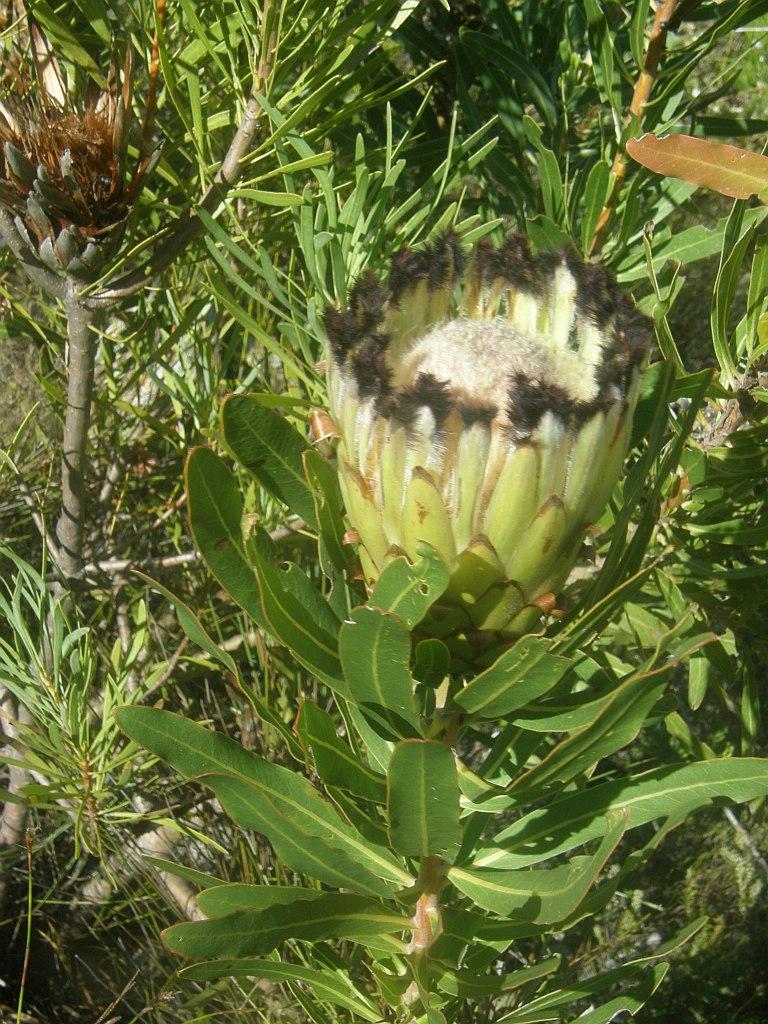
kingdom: Plantae
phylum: Tracheophyta
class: Magnoliopsida
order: Proteales
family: Proteaceae
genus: Protea
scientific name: Protea neriifolia
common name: Blue sugarbush
